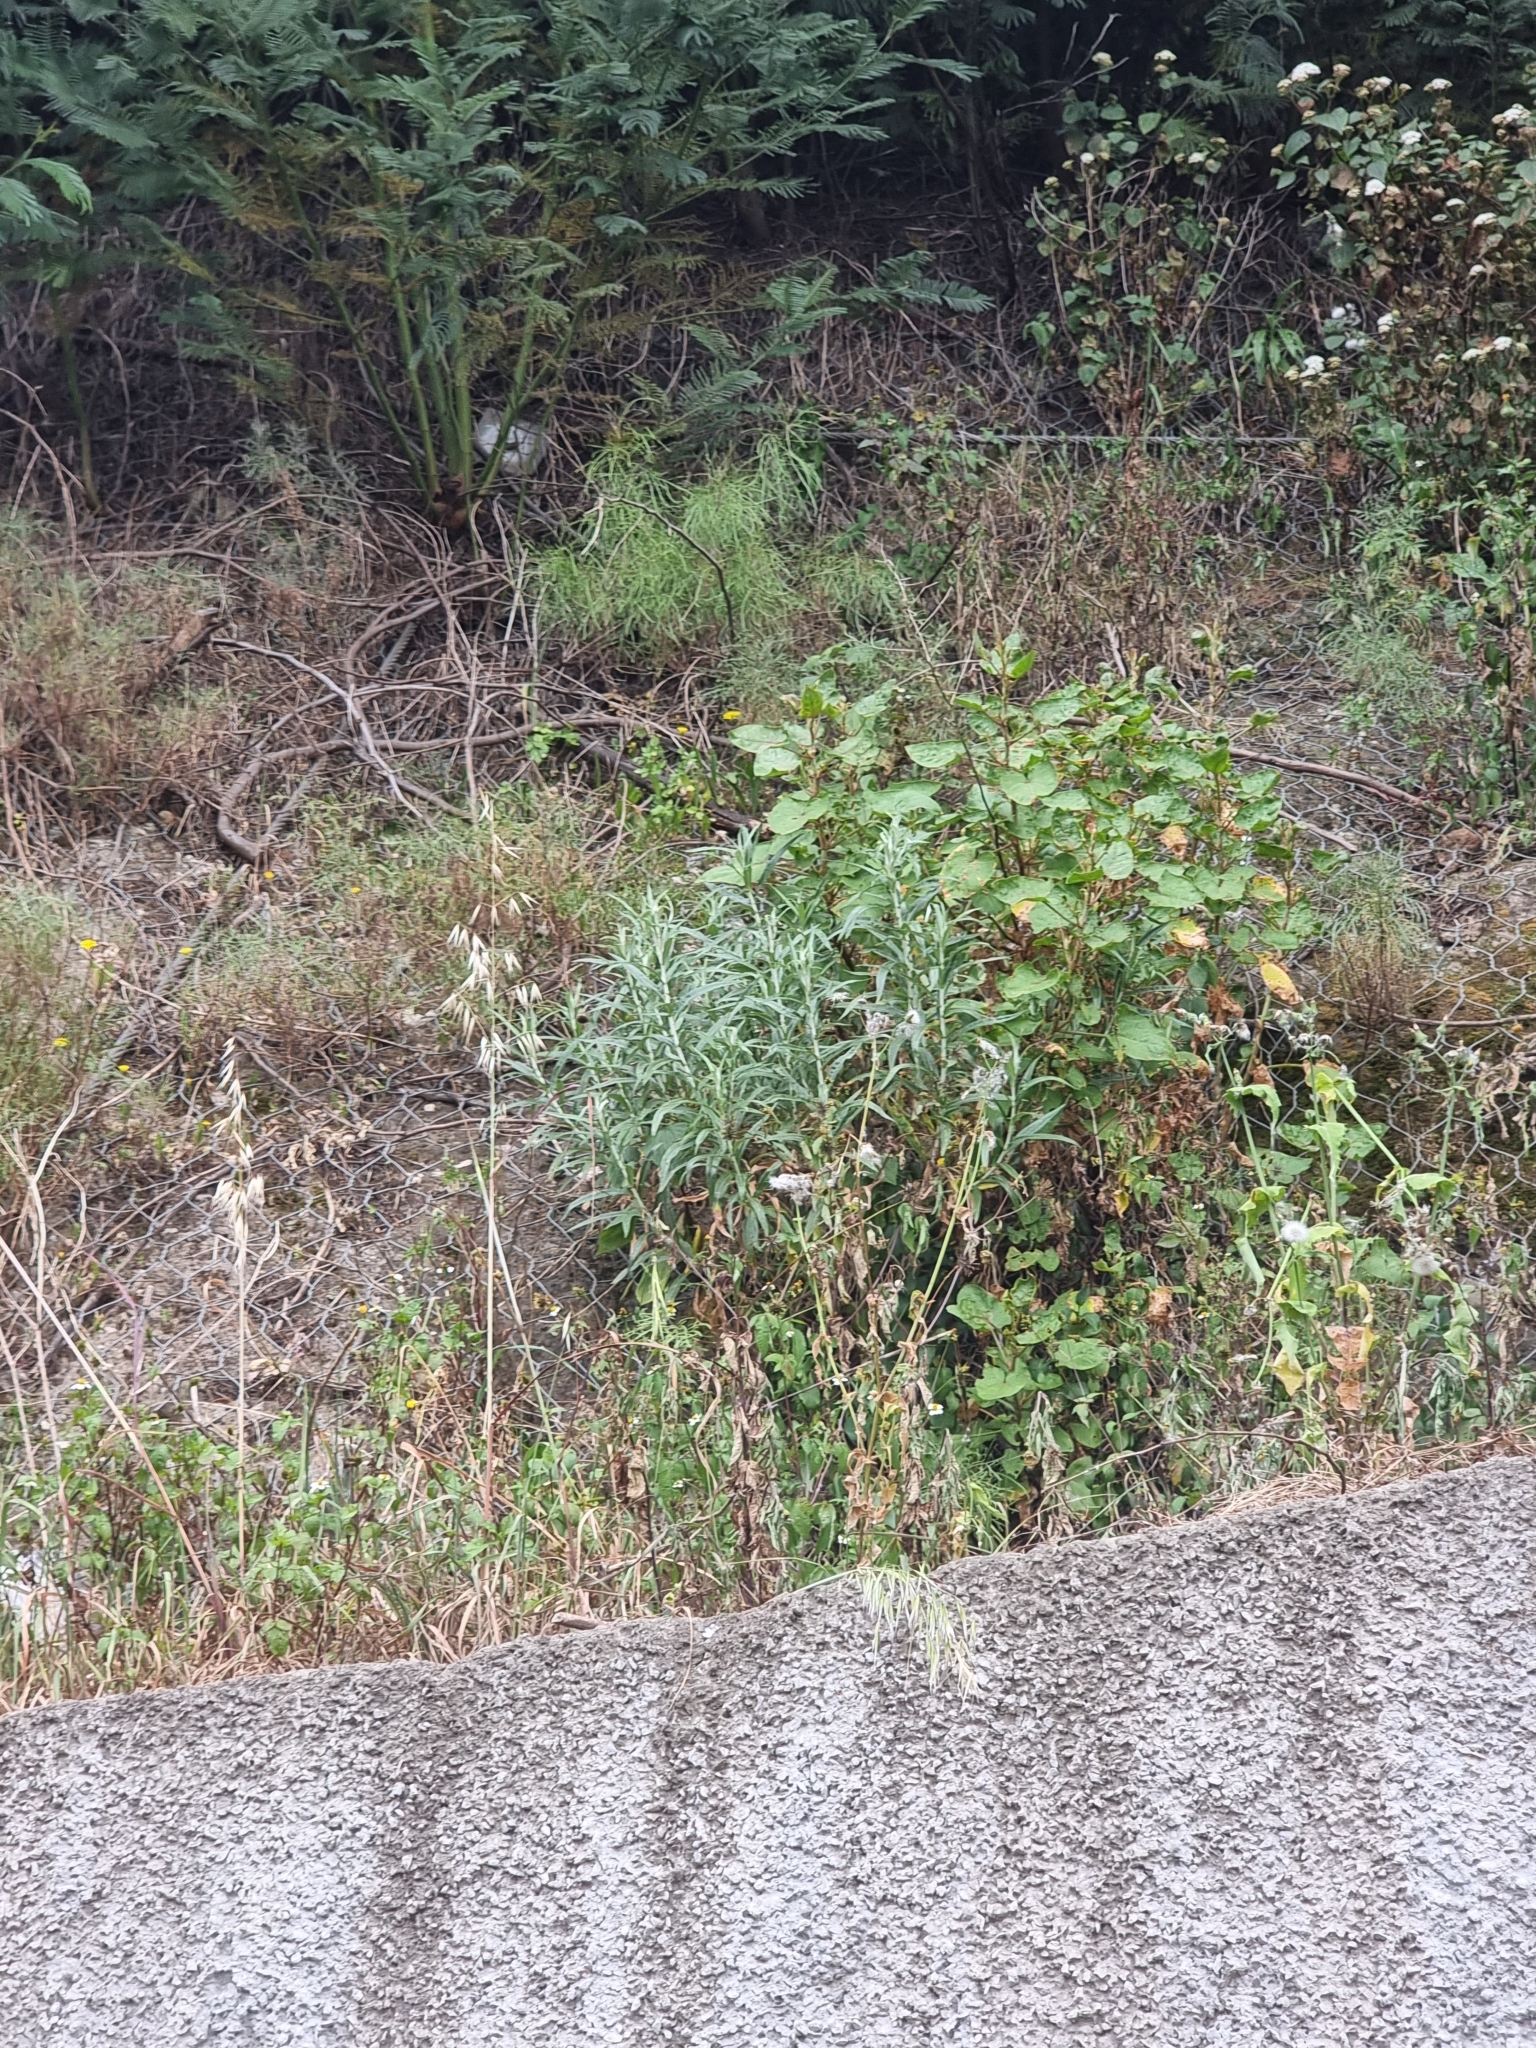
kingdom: Plantae
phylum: Tracheophyta
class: Magnoliopsida
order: Asterales
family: Asteraceae
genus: Carlina
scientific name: Carlina salicifolia
